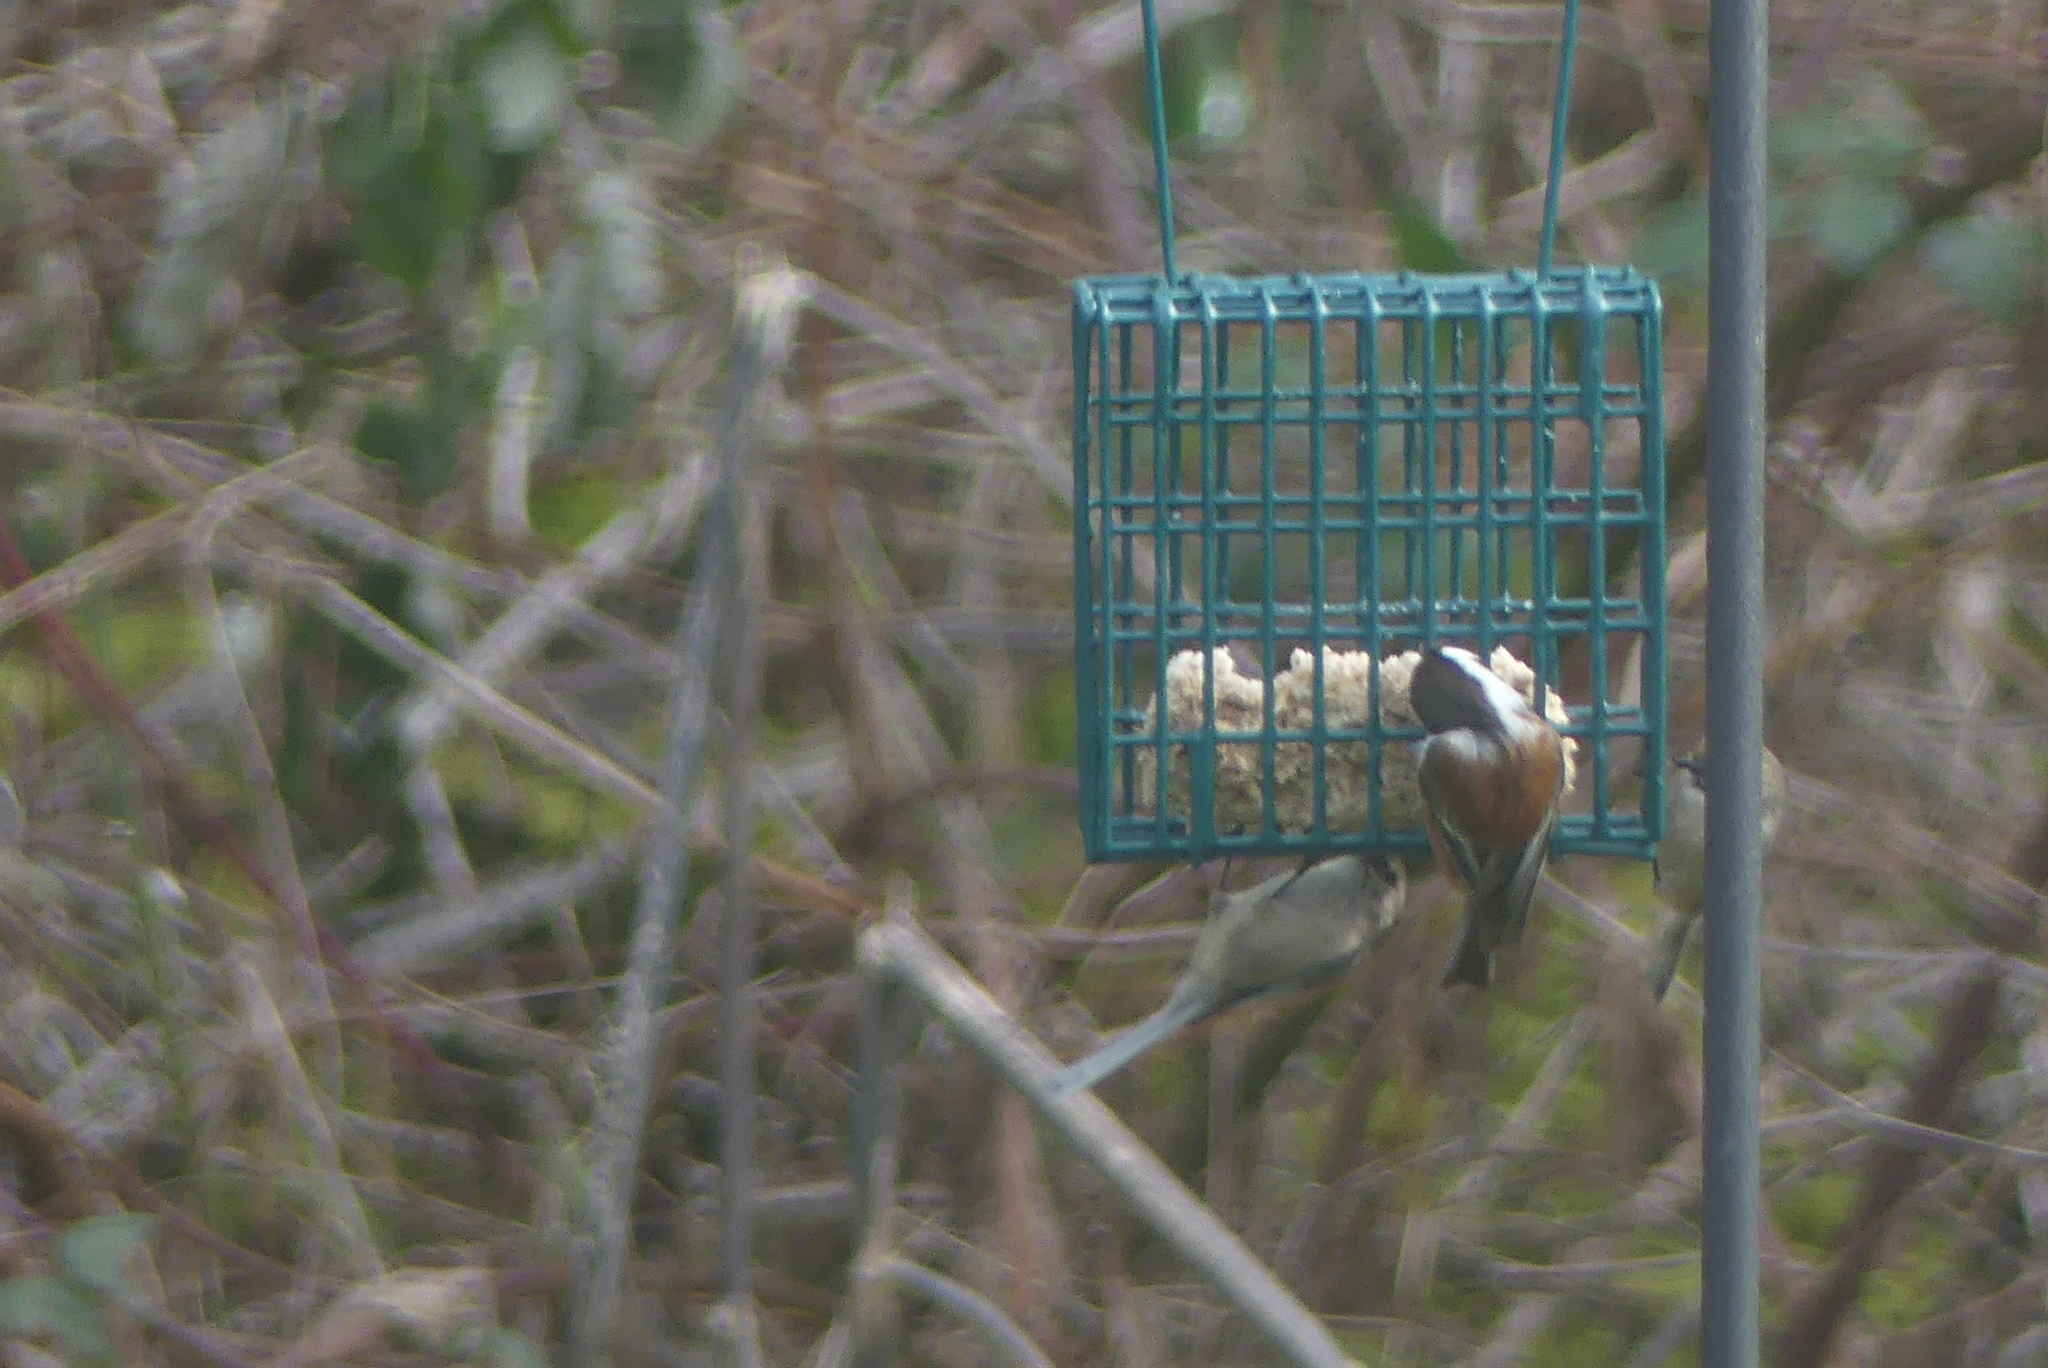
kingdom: Animalia
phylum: Chordata
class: Aves
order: Passeriformes
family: Paridae
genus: Poecile
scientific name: Poecile rufescens
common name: Chestnut-backed chickadee
